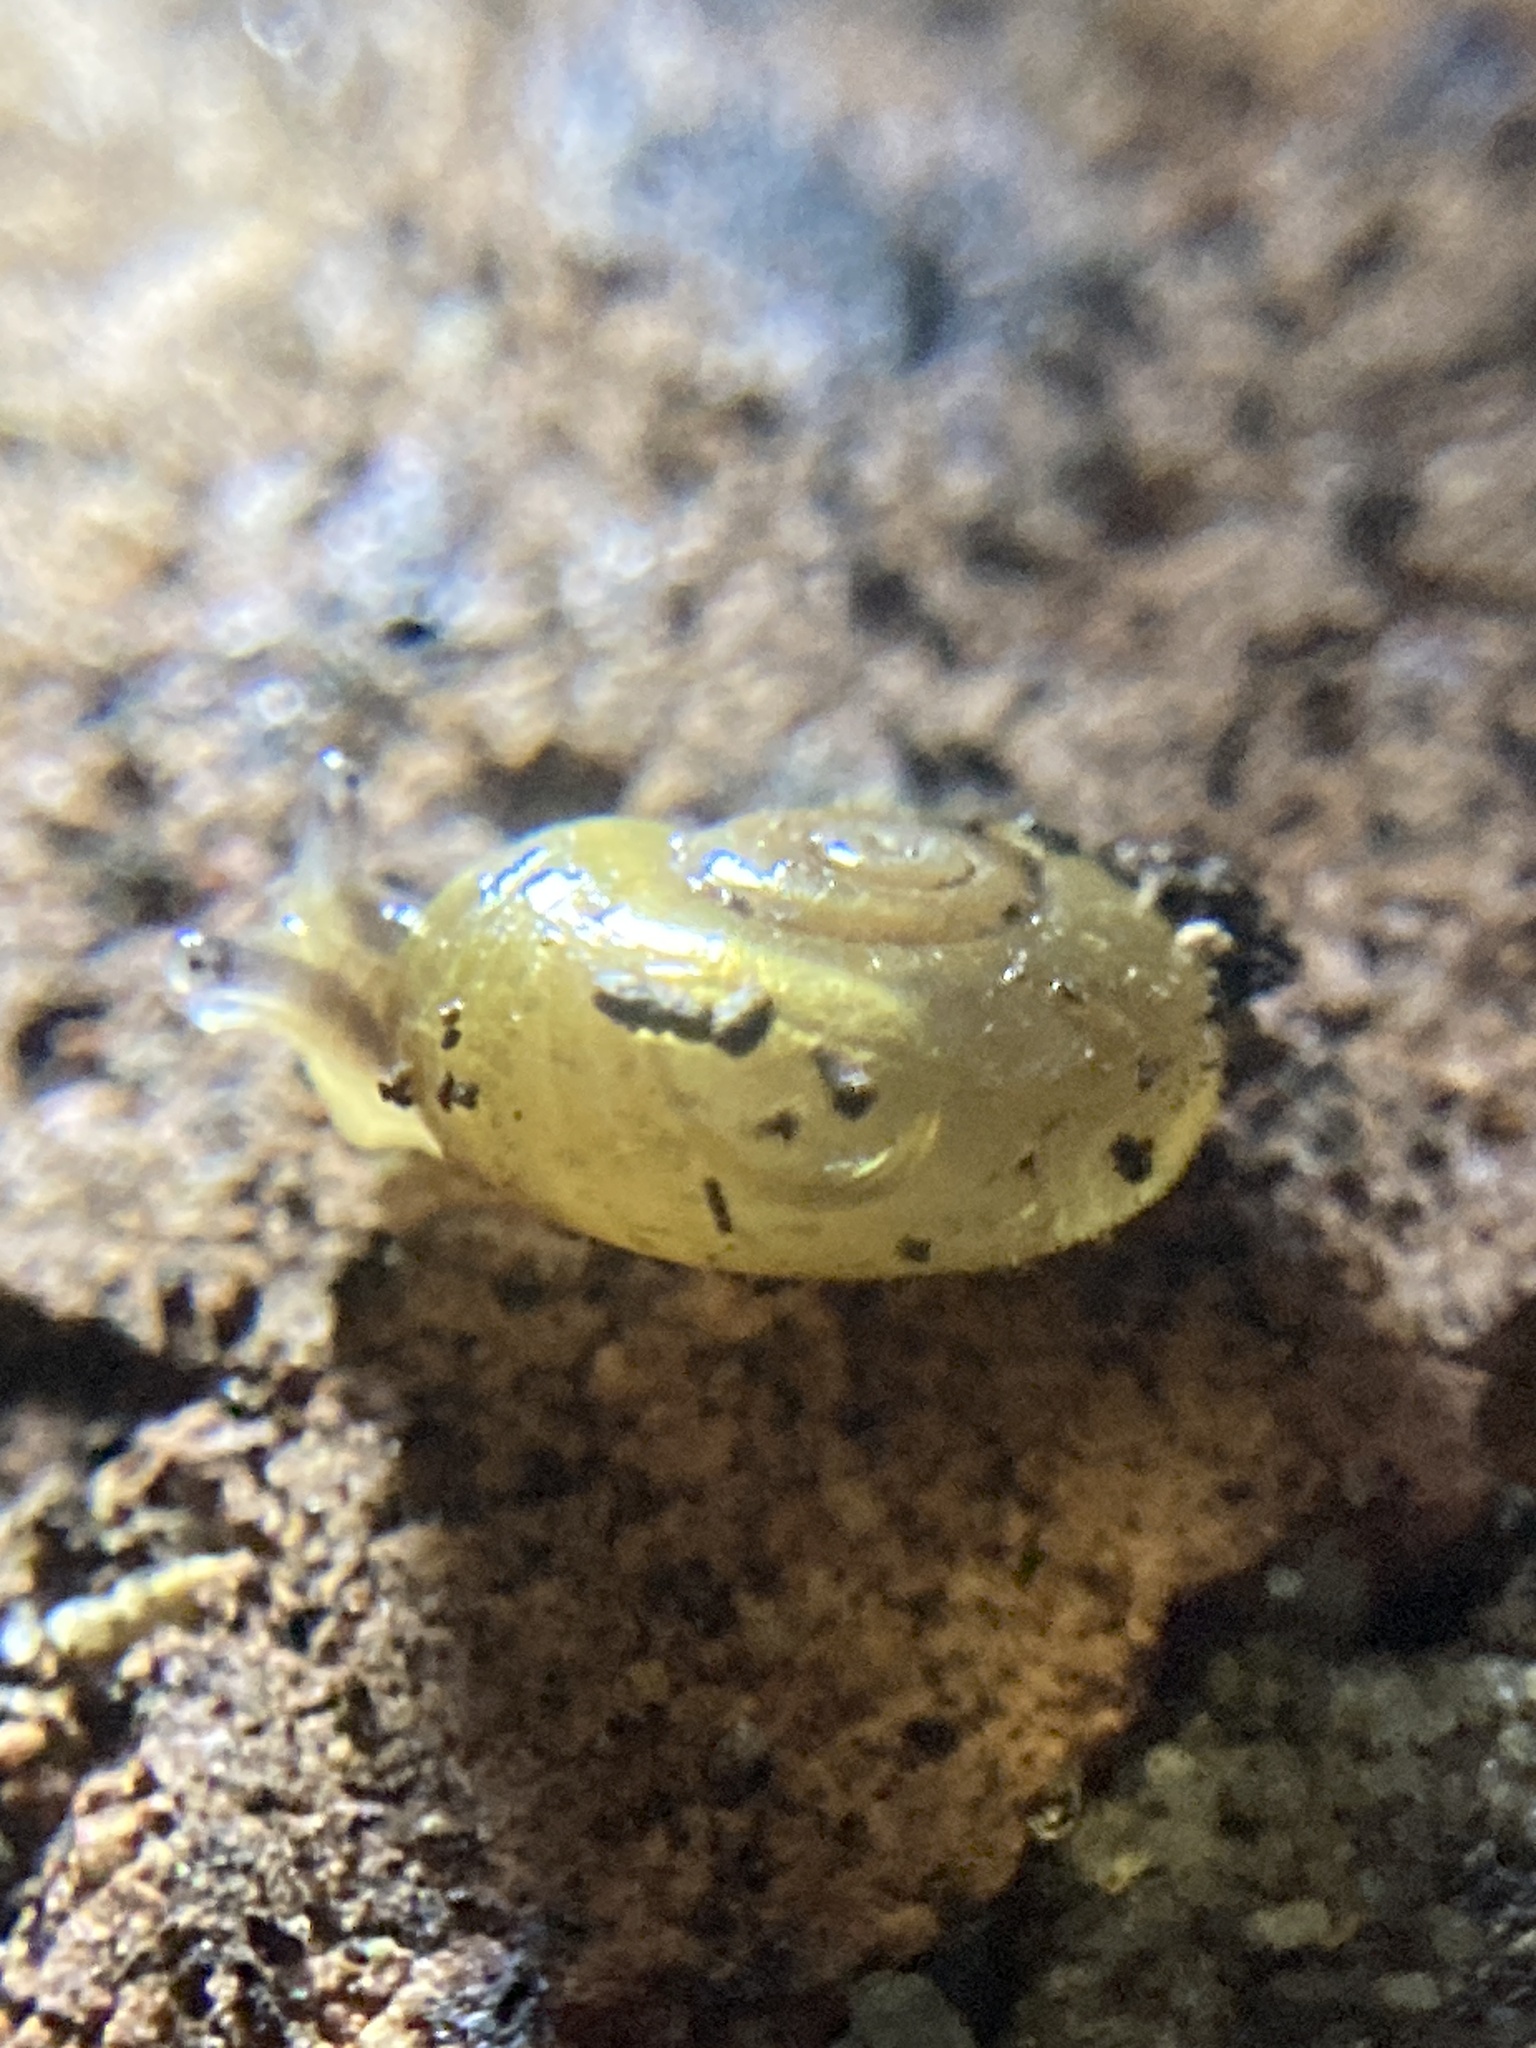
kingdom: Animalia
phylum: Mollusca
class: Gastropoda
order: Stylommatophora
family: Rhytididae
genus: Vitellidelos
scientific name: Vitellidelos dulcis
